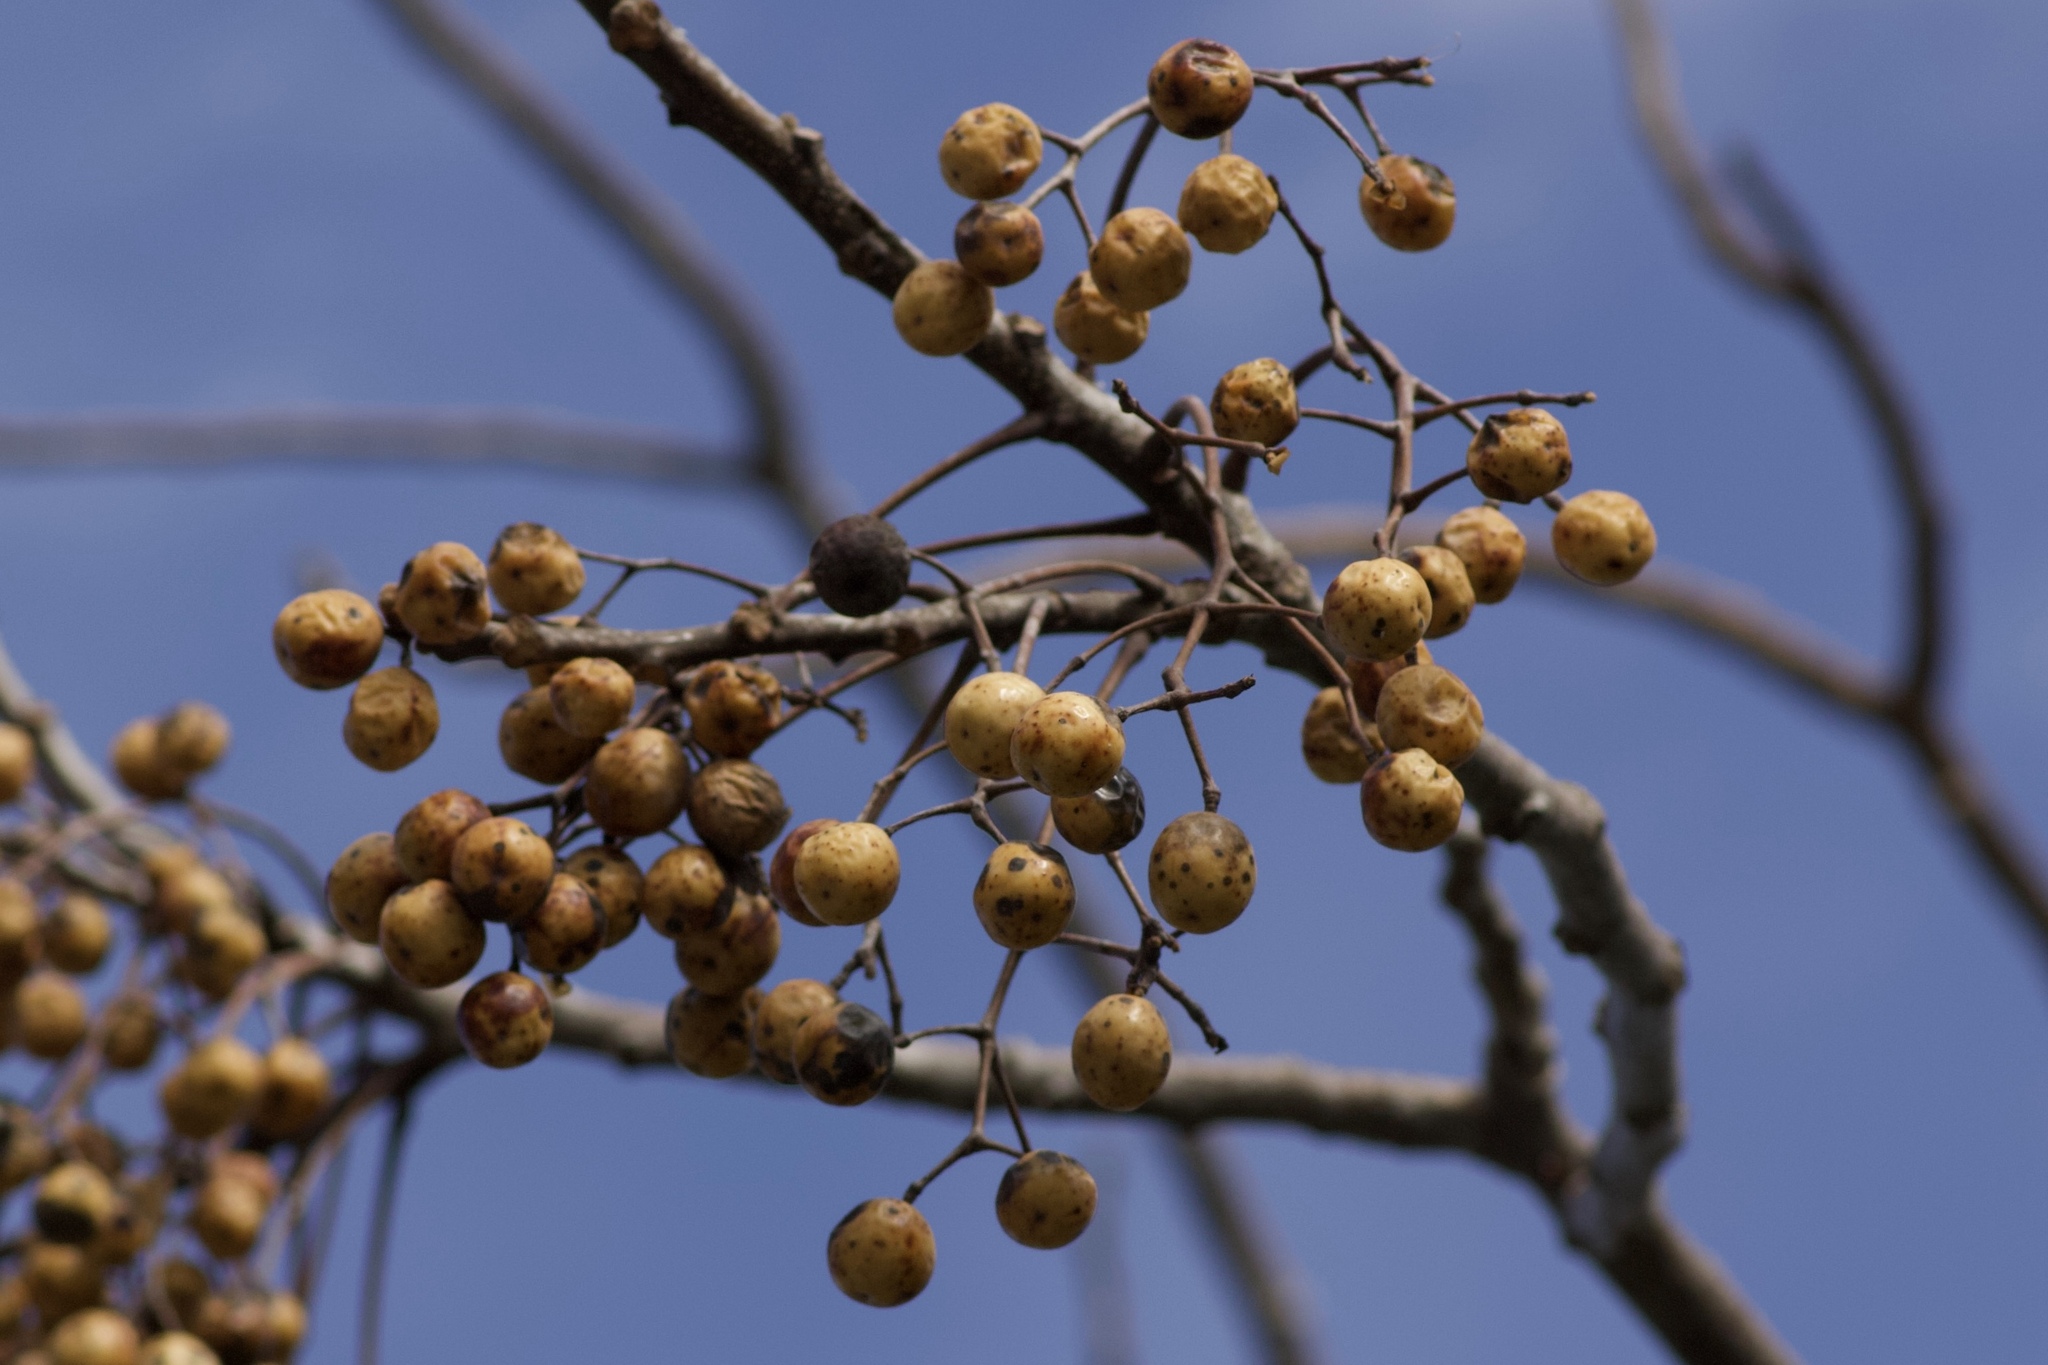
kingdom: Plantae
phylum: Tracheophyta
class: Magnoliopsida
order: Sapindales
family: Meliaceae
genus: Melia
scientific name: Melia azedarach
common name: Chinaberrytree
